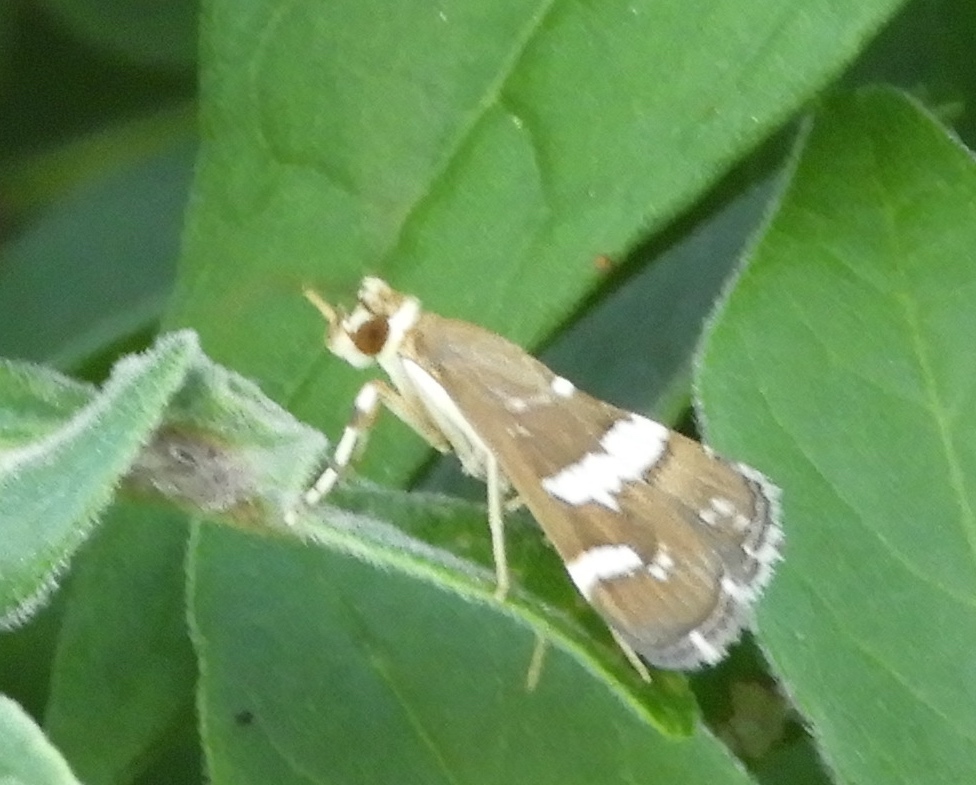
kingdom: Animalia
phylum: Arthropoda
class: Insecta
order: Lepidoptera
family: Crambidae
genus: Spoladea
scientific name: Spoladea recurvalis
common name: Beet webworm moth
